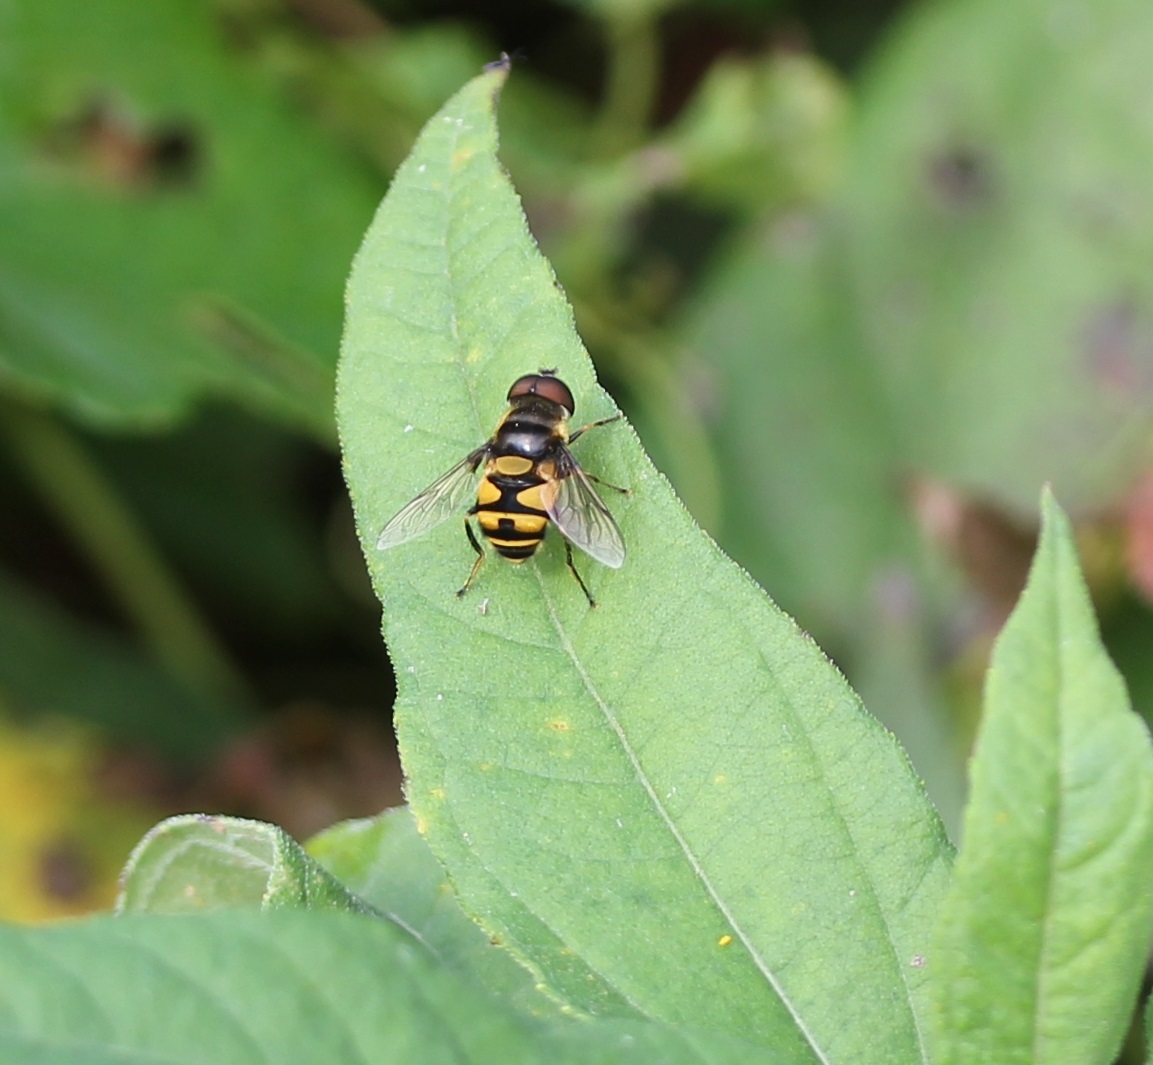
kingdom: Animalia
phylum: Arthropoda
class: Insecta
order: Diptera
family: Syrphidae
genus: Eristalis
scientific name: Eristalis transversa
